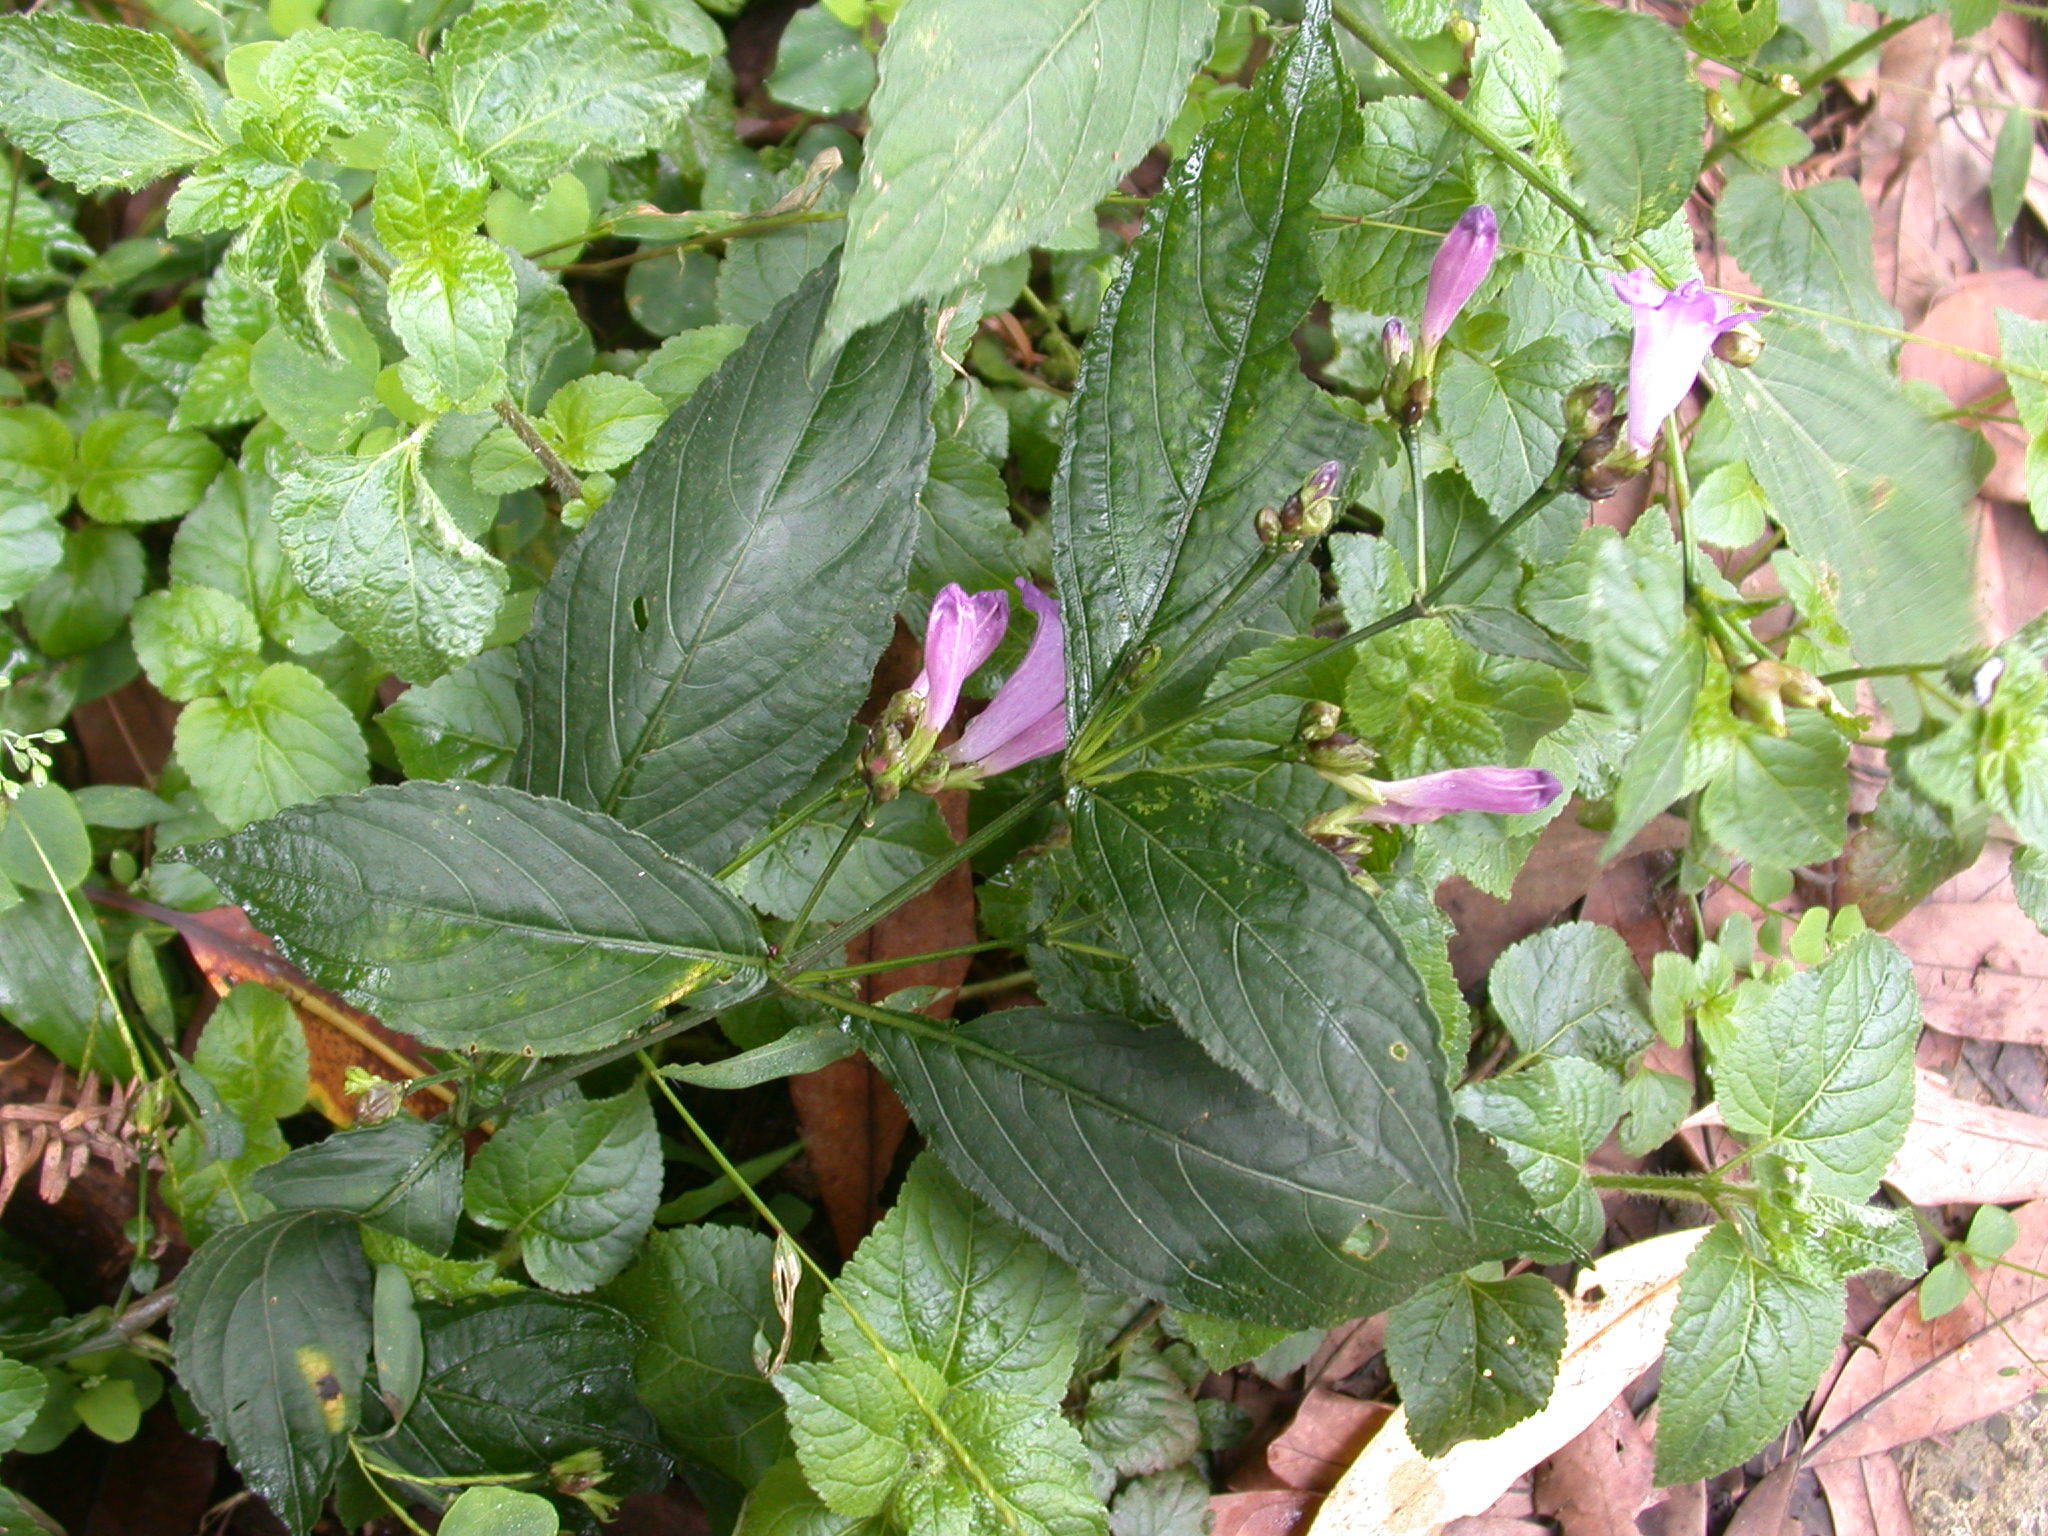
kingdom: Plantae
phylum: Tracheophyta
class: Magnoliopsida
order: Lamiales
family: Acanthaceae
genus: Strobilanthes
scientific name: Strobilanthes formosana
